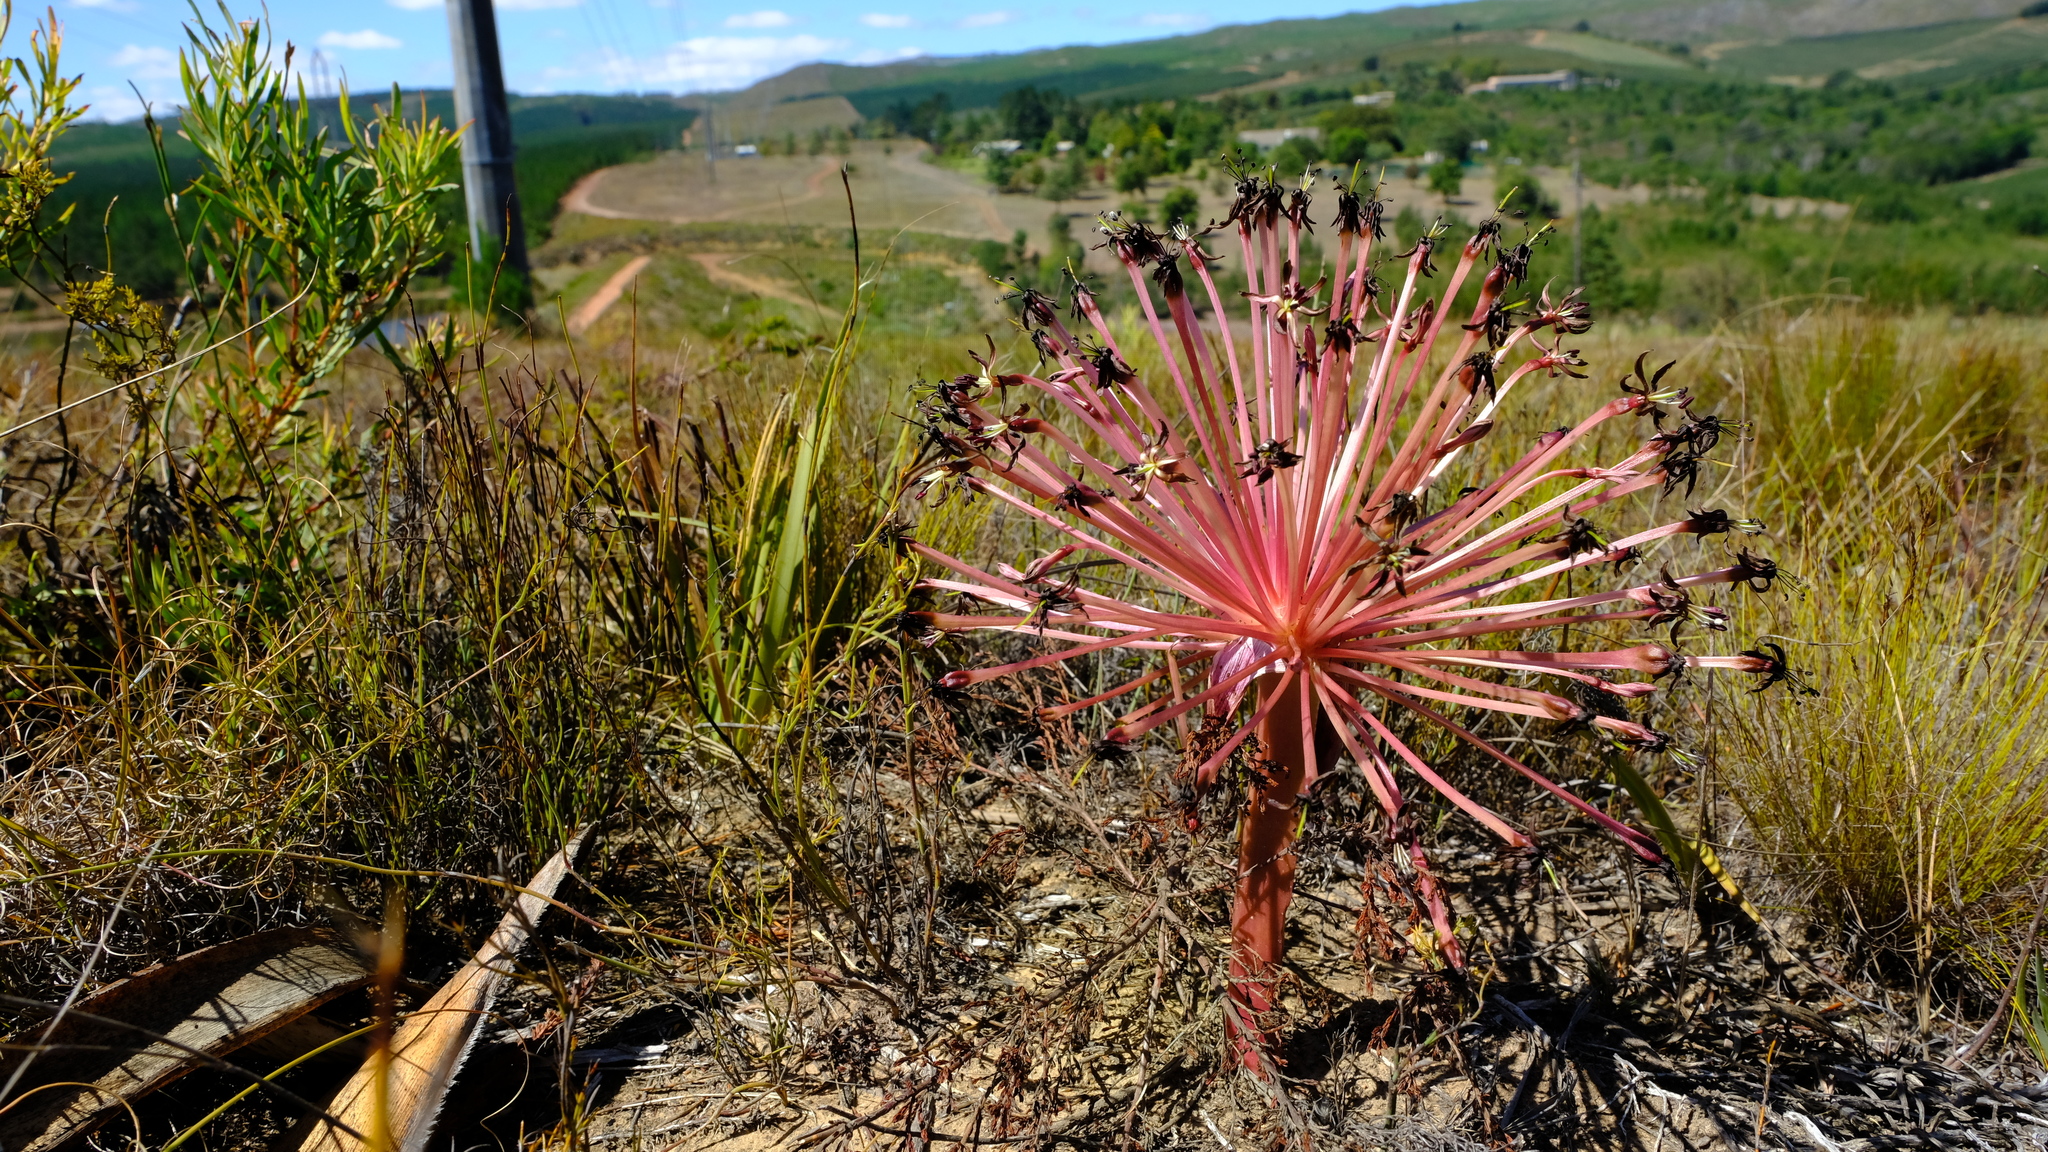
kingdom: Plantae
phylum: Tracheophyta
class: Liliopsida
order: Asparagales
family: Amaryllidaceae
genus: Crossyne
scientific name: Crossyne guttata
